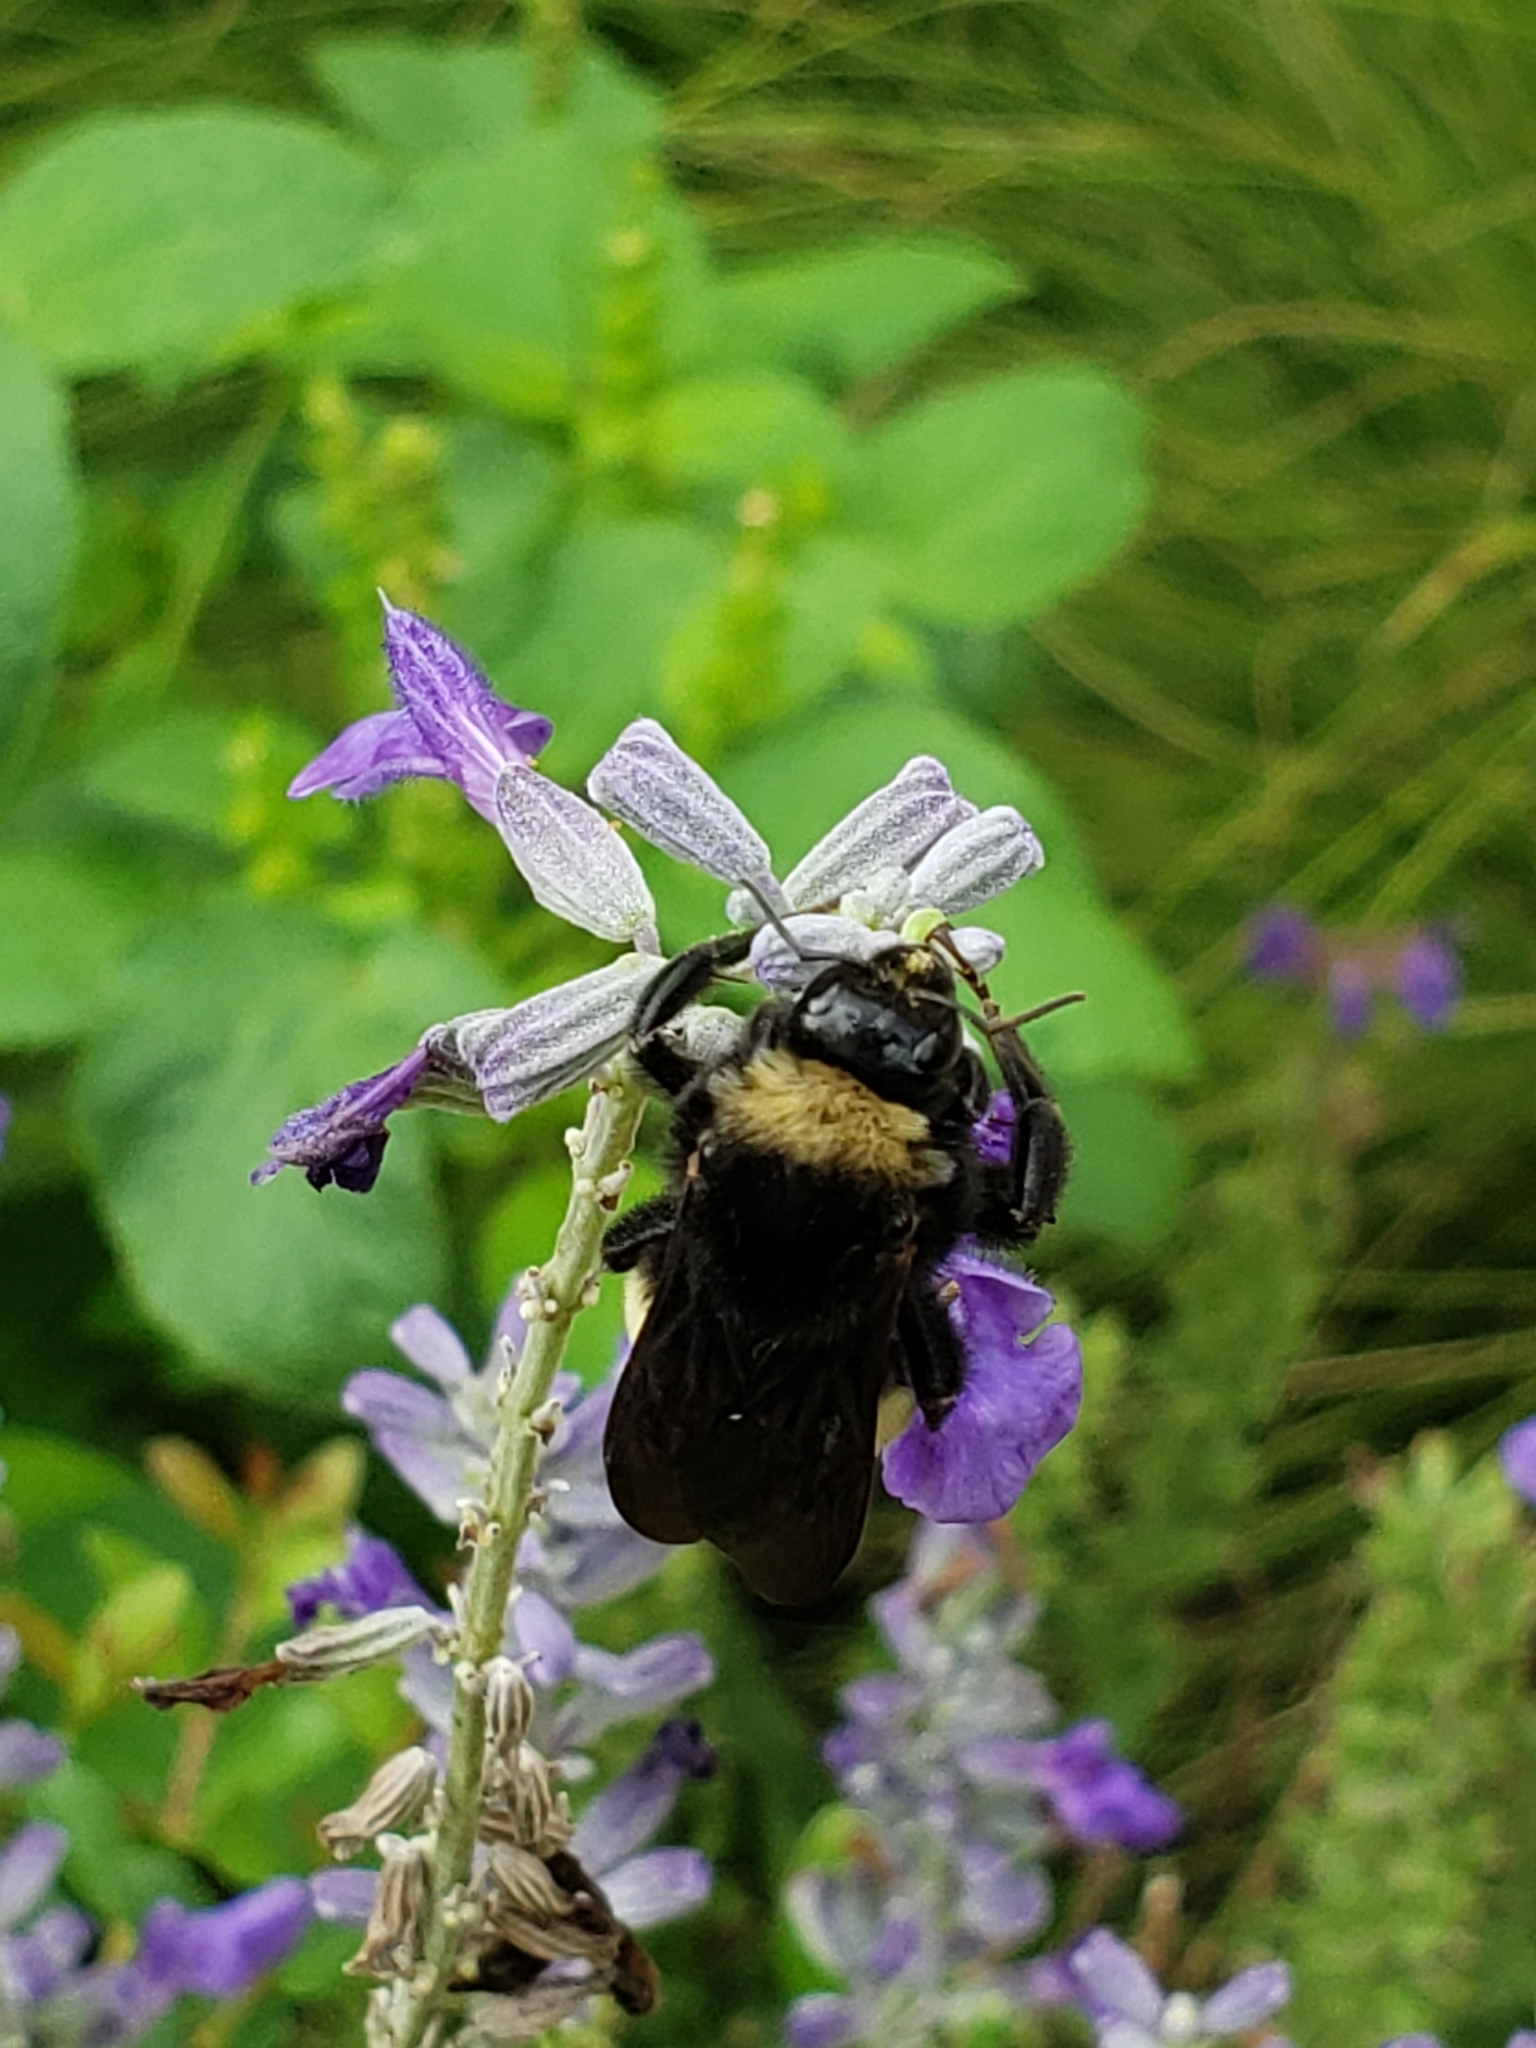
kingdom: Animalia
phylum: Arthropoda
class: Insecta
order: Hymenoptera
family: Apidae
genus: Bombus
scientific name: Bombus pensylvanicus
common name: Bumble bee
